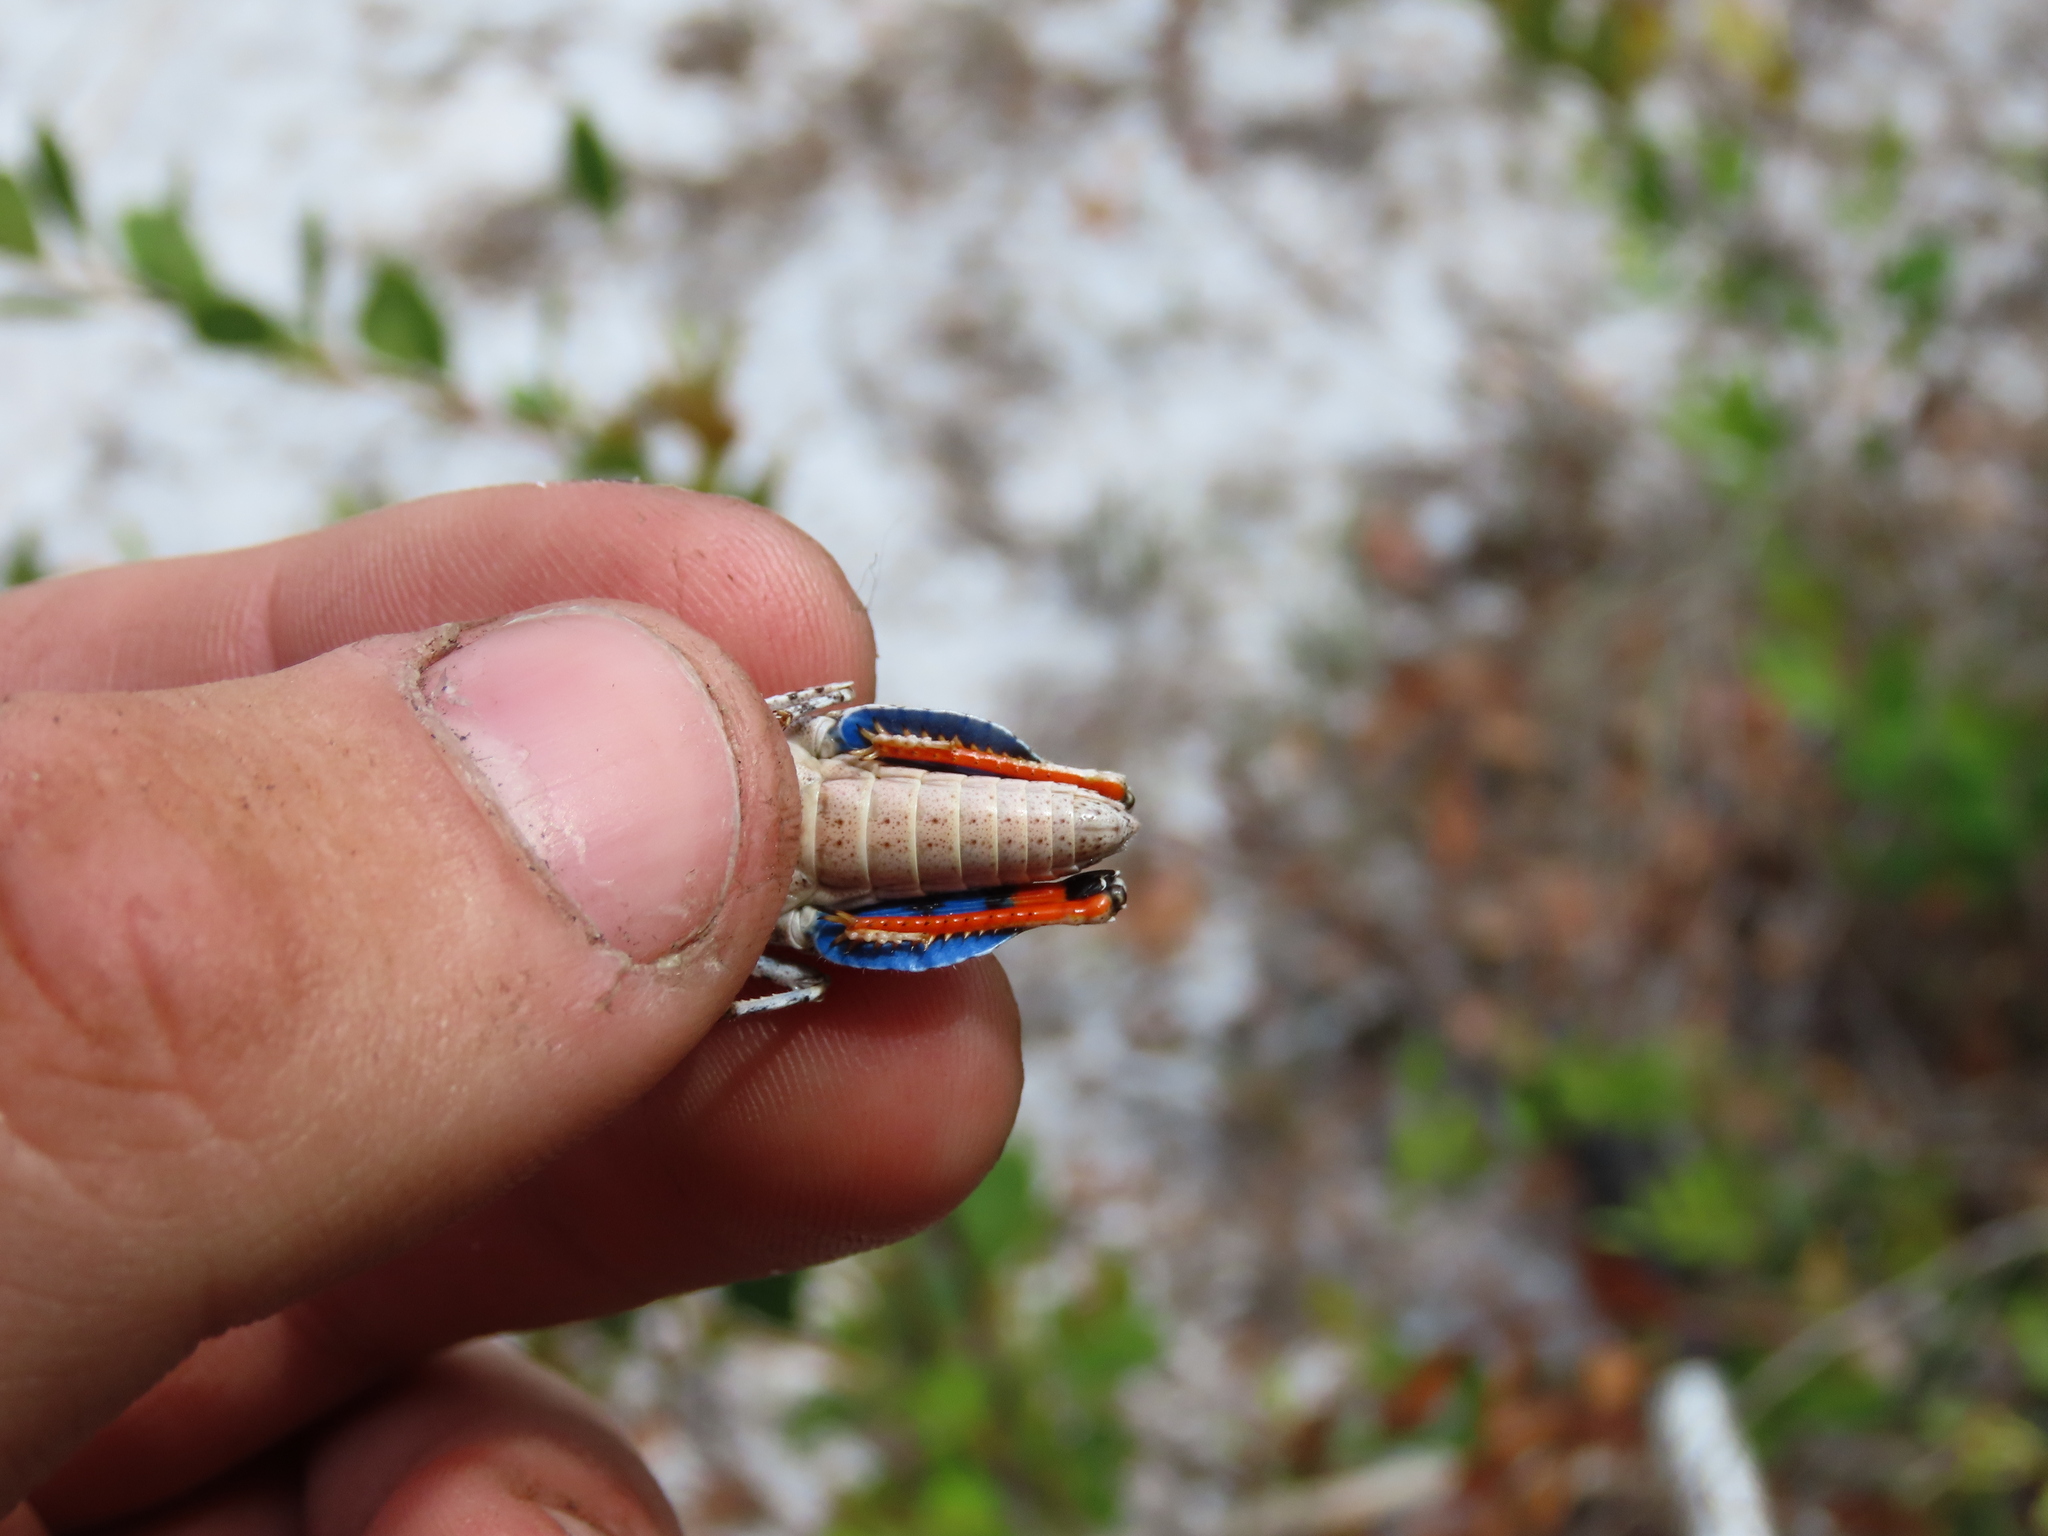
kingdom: Animalia
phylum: Arthropoda
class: Insecta
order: Orthoptera
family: Acrididae
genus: Pardalophora
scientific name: Pardalophora phoenicoptera
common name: Orange-winged grasshopper
